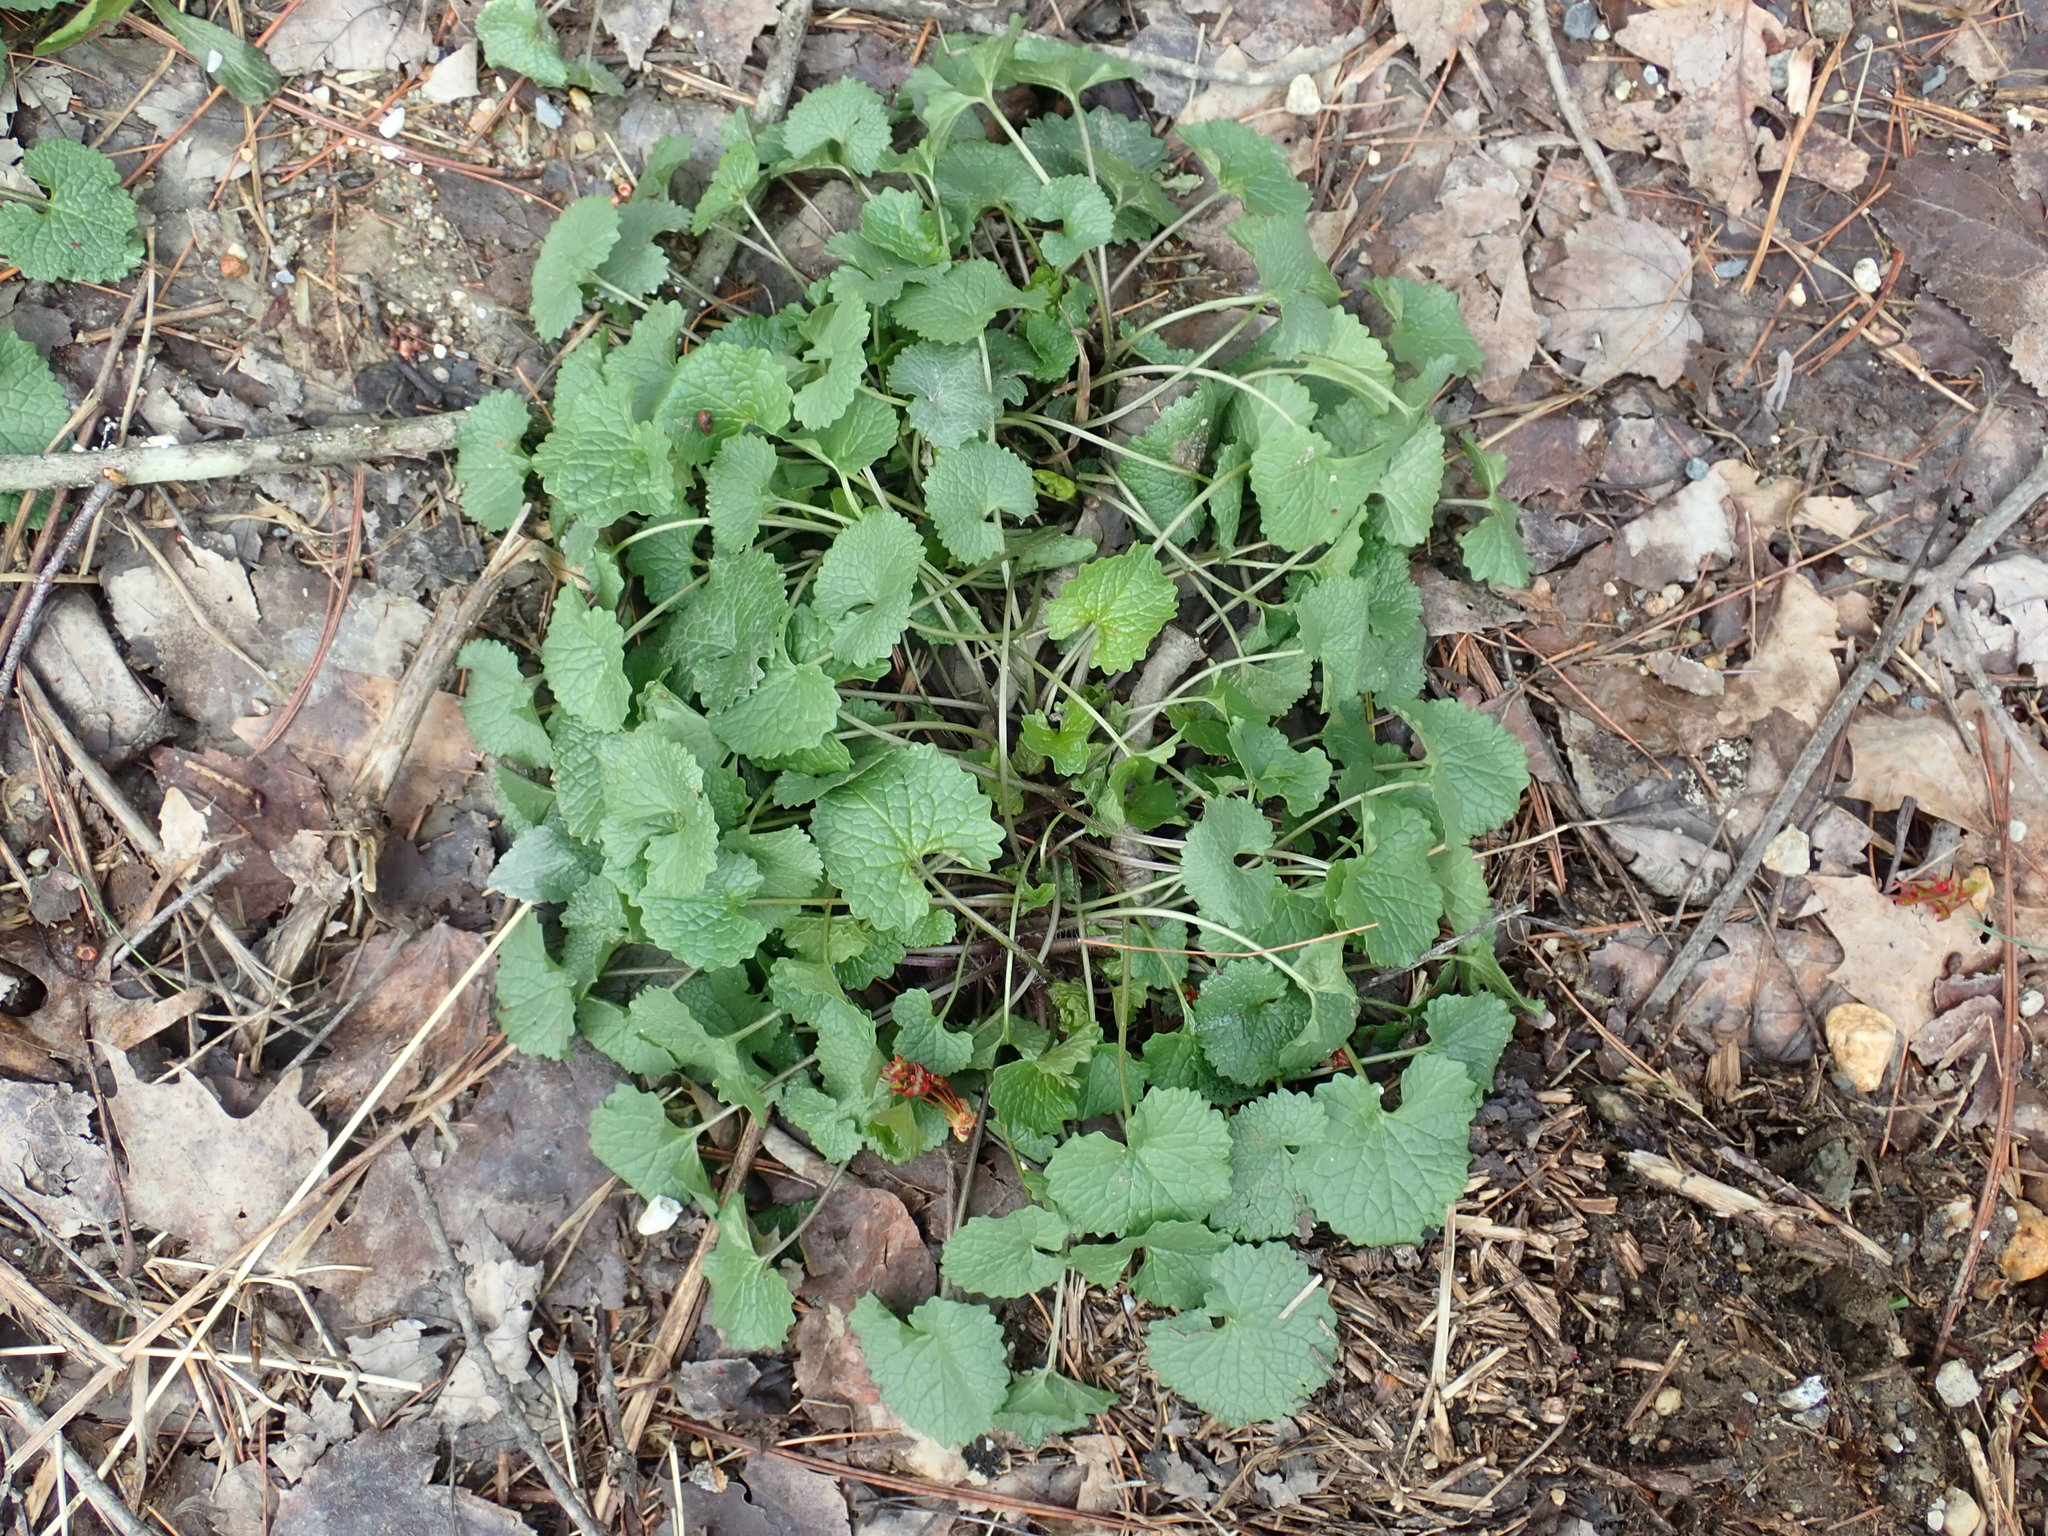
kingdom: Plantae
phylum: Tracheophyta
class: Magnoliopsida
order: Brassicales
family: Brassicaceae
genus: Alliaria
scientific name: Alliaria petiolata
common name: Garlic mustard
